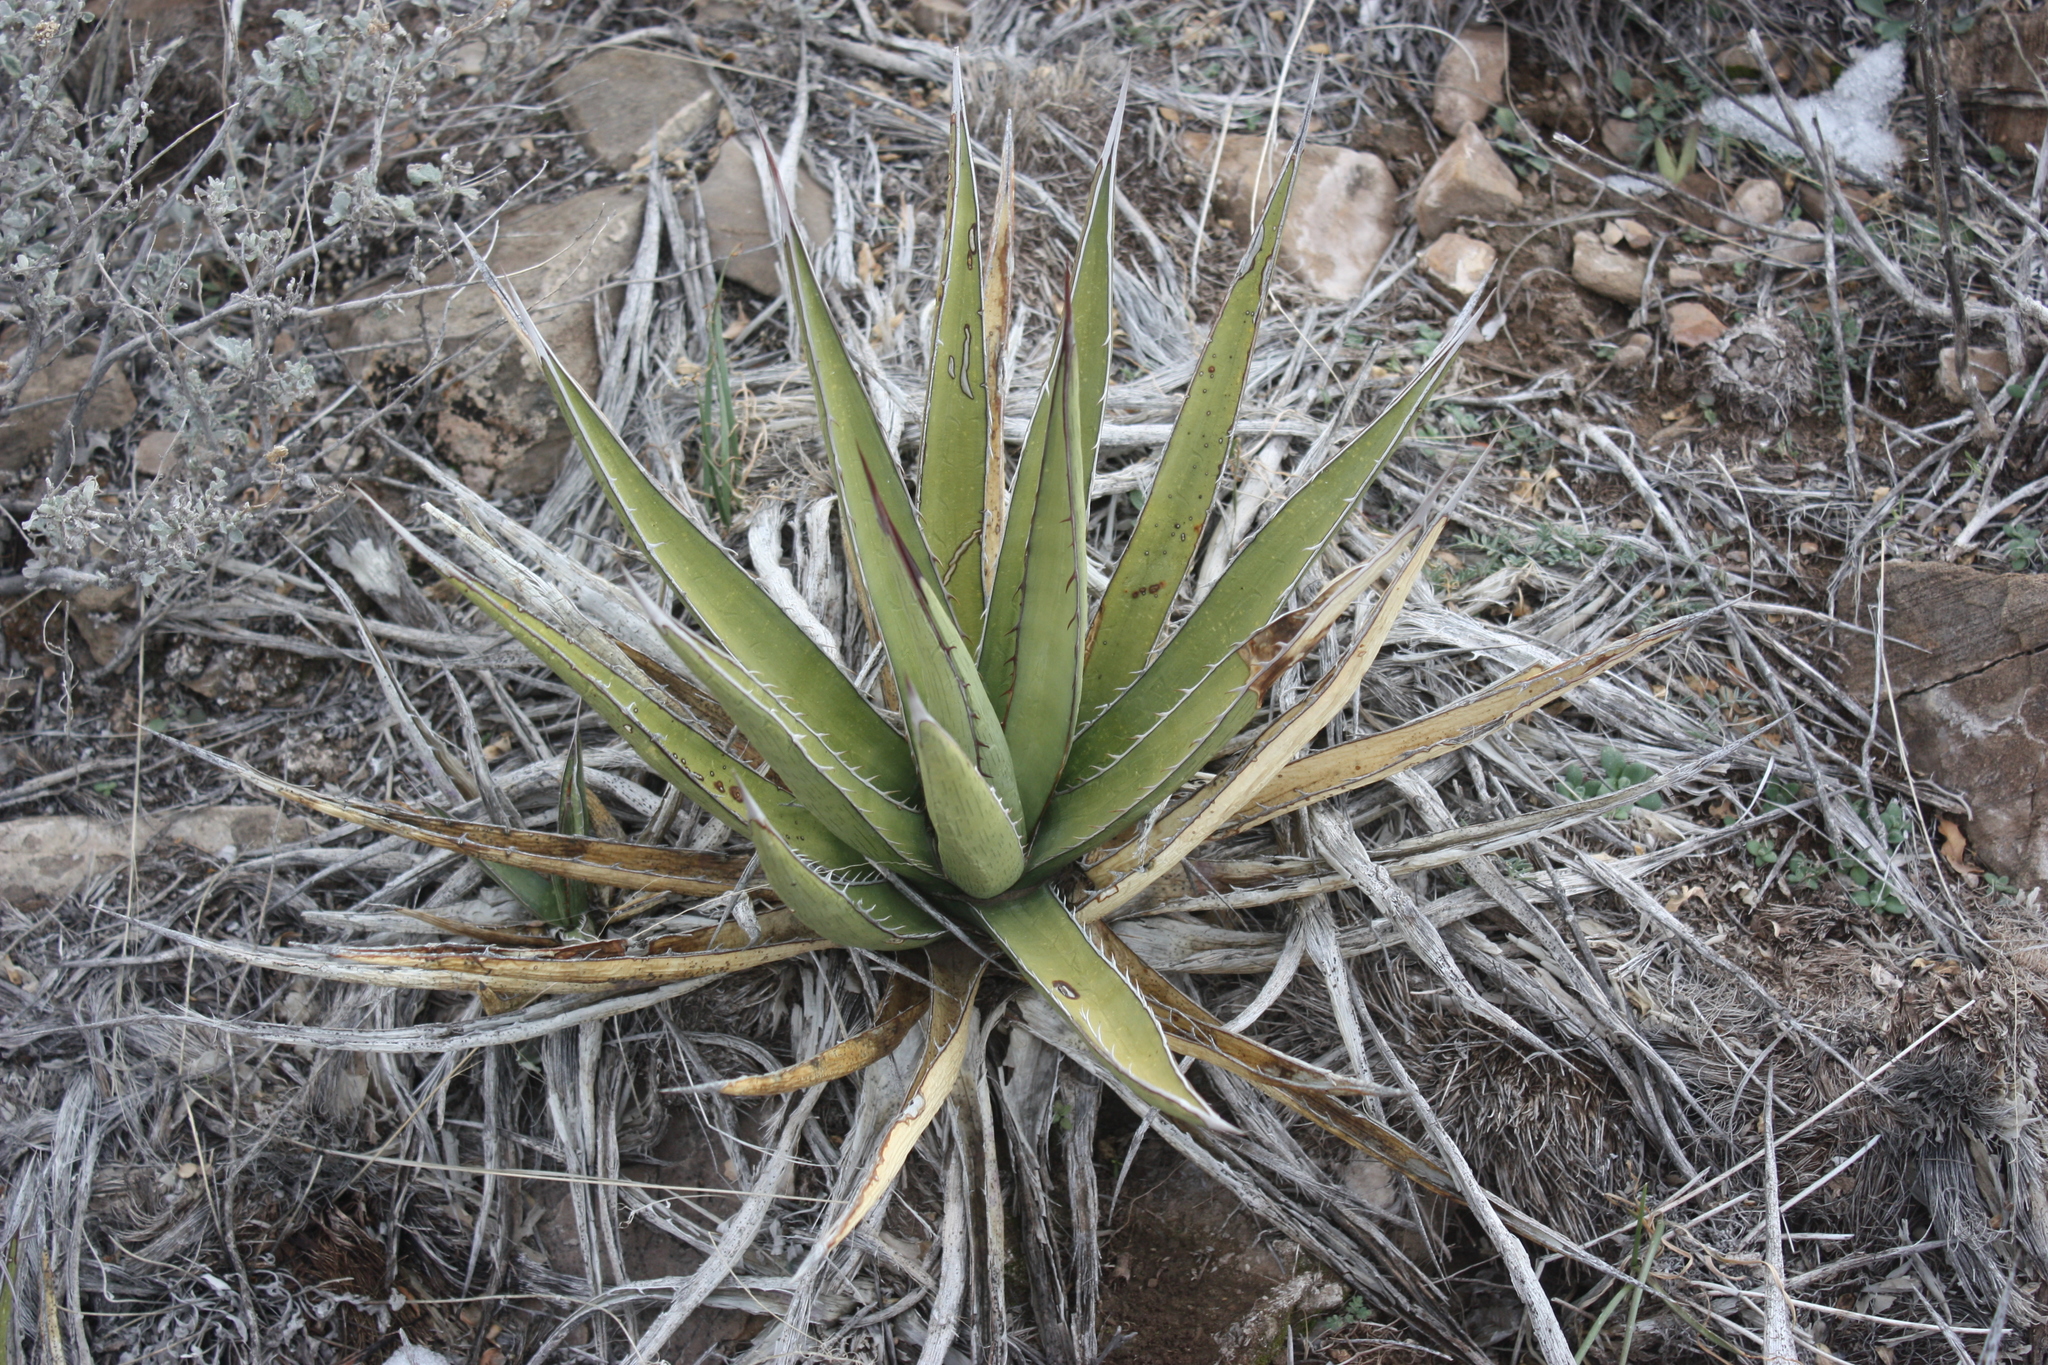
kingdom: Plantae
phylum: Tracheophyta
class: Liliopsida
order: Asparagales
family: Asparagaceae
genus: Agave
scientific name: Agave lechuguilla
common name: Lecheguilla agave
